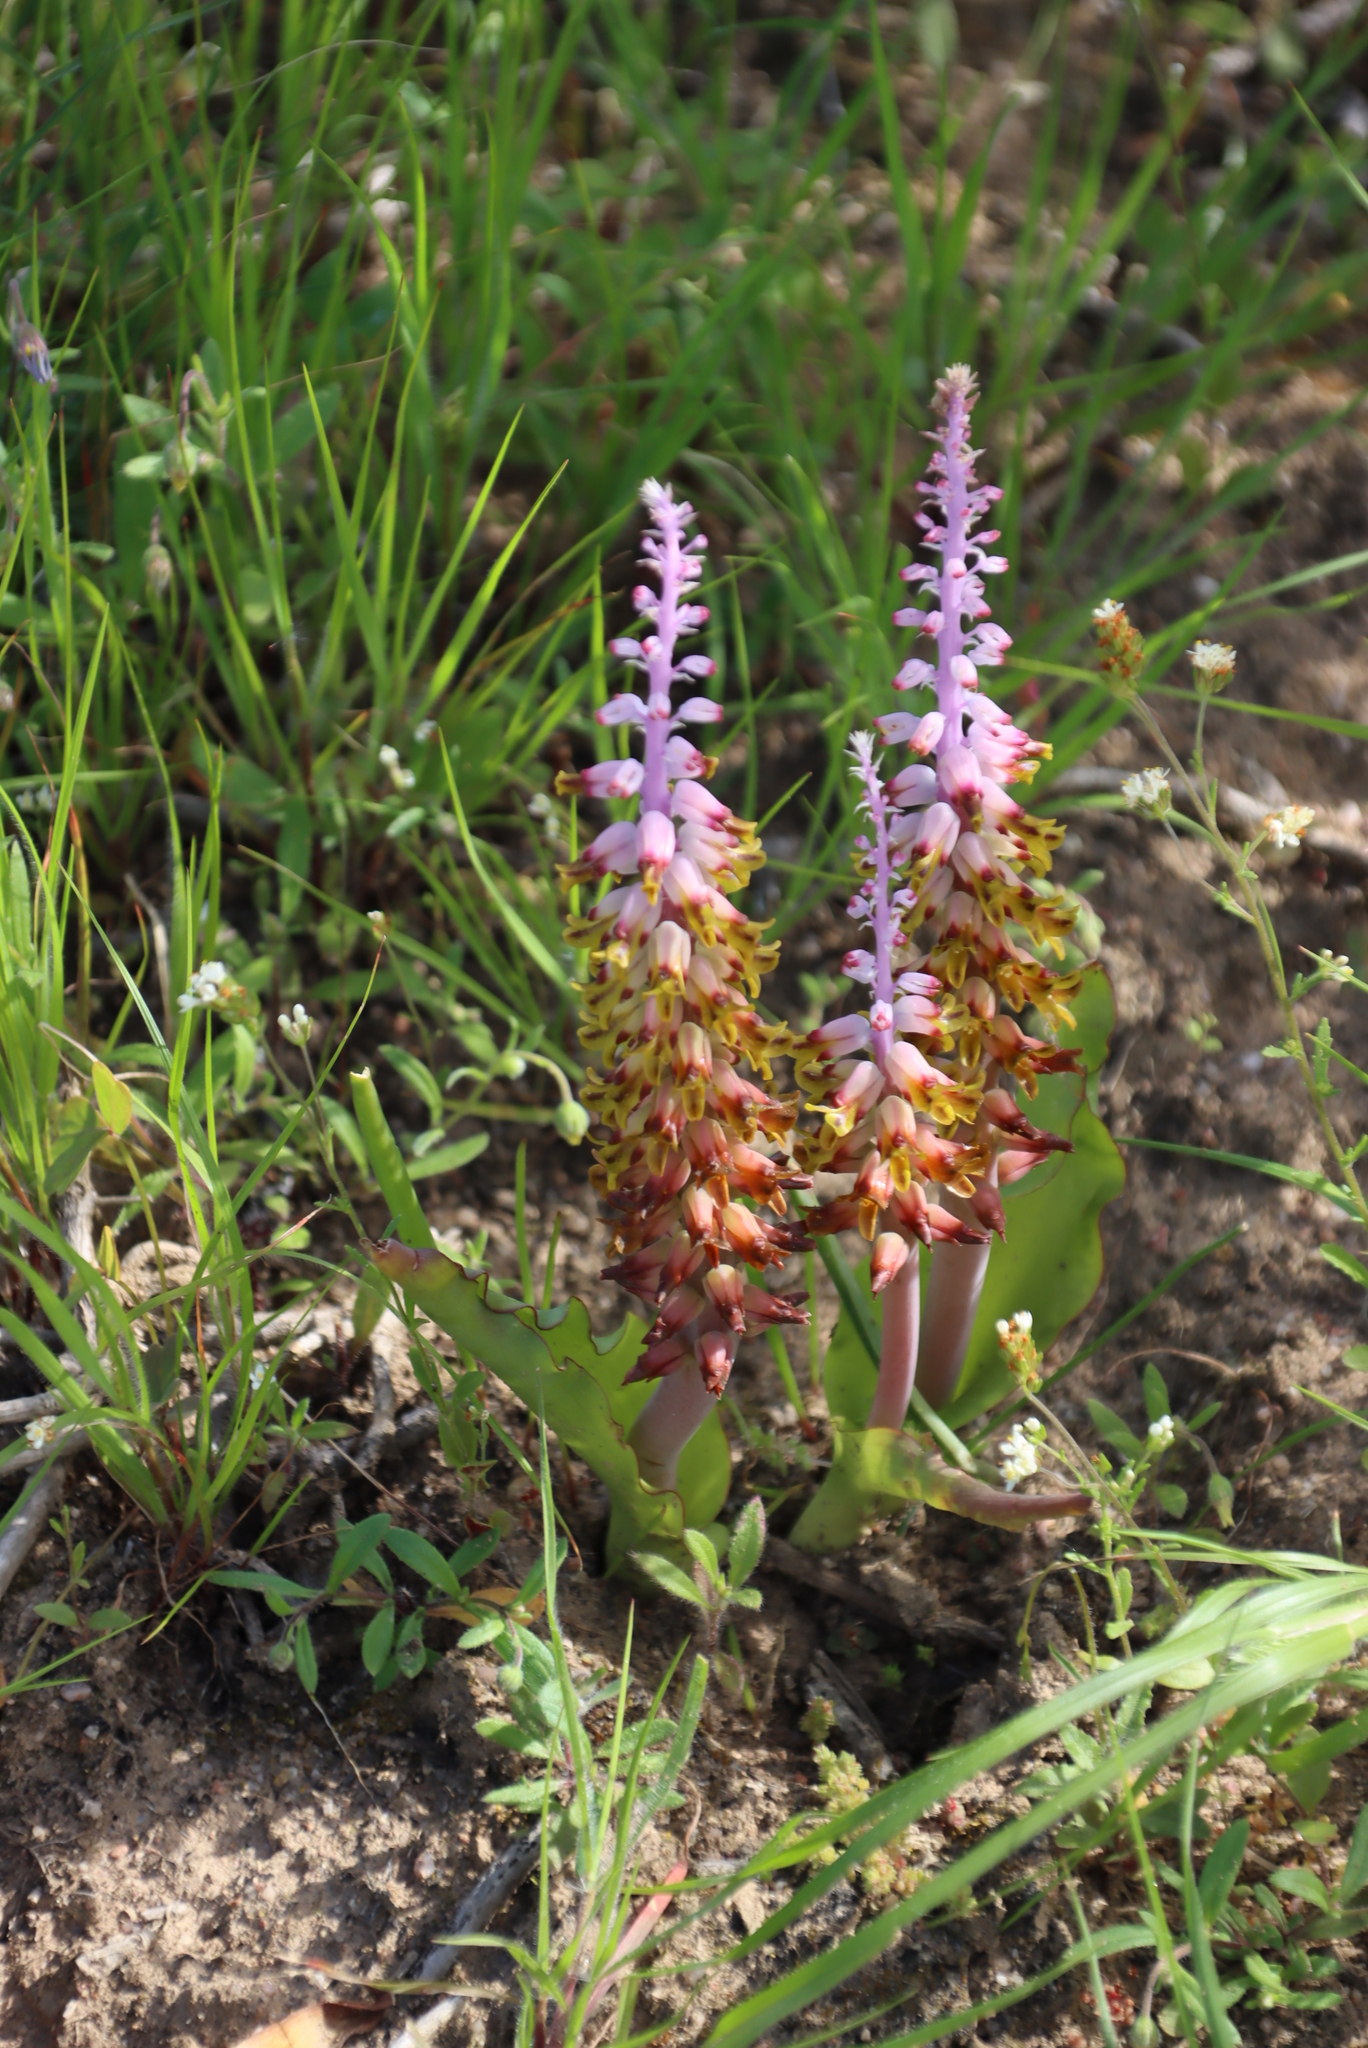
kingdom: Plantae
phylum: Tracheophyta
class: Liliopsida
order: Asparagales
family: Asparagaceae
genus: Lachenalia
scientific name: Lachenalia mutabilis
